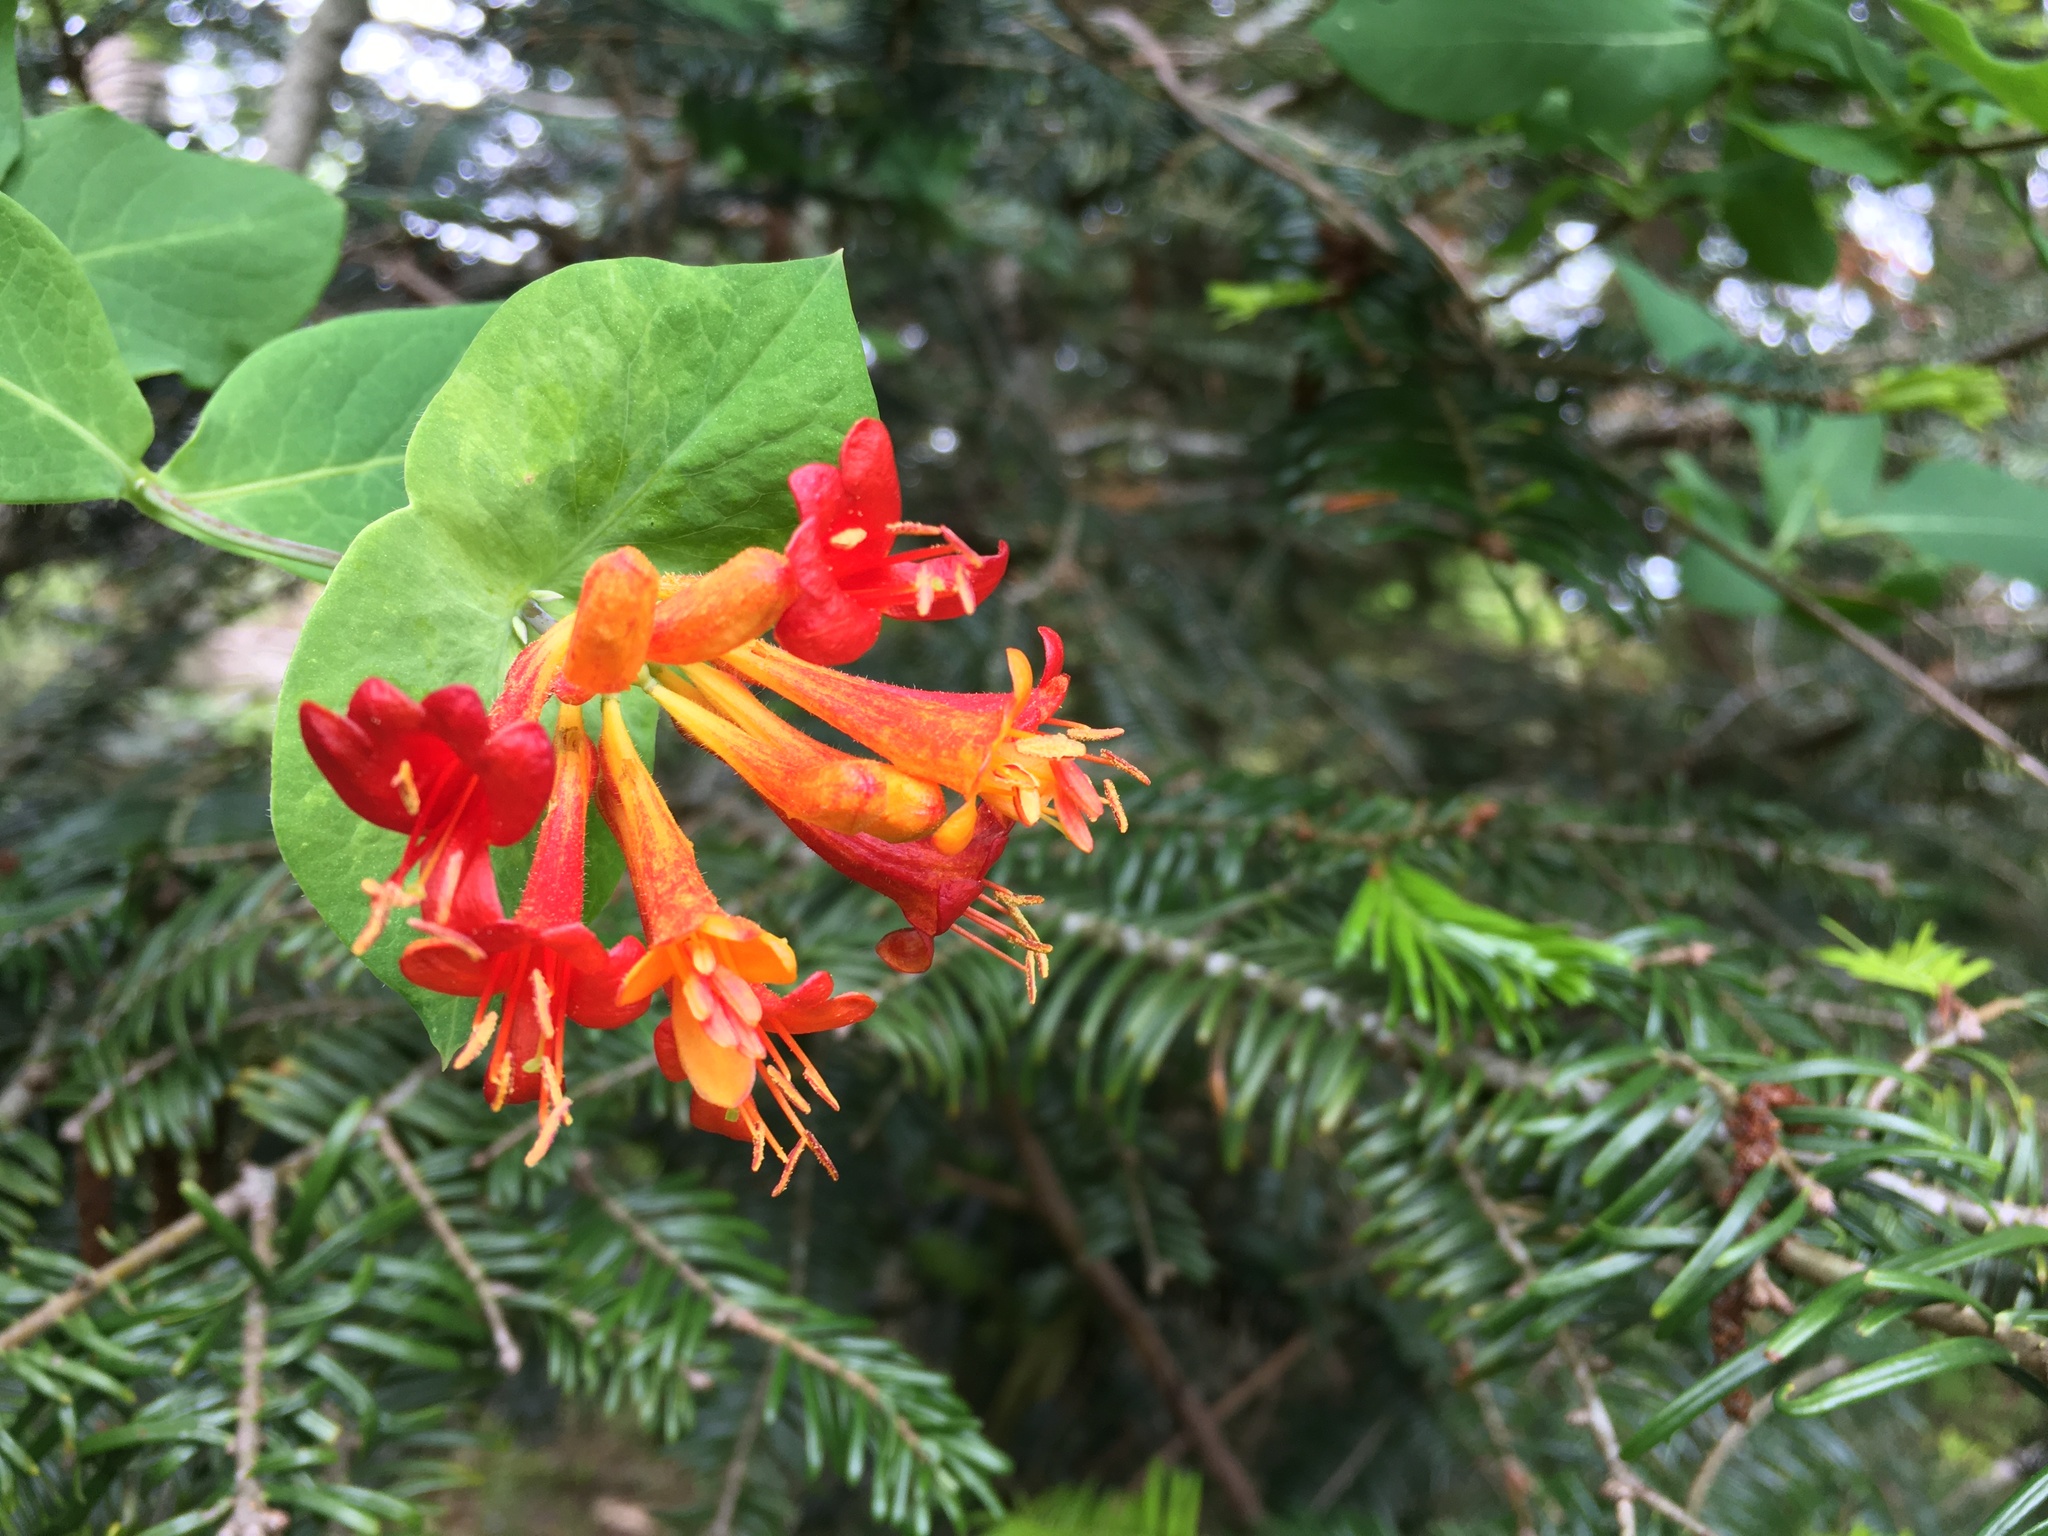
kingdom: Plantae
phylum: Tracheophyta
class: Magnoliopsida
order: Dipsacales
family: Caprifoliaceae
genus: Lonicera
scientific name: Lonicera ciliosa
